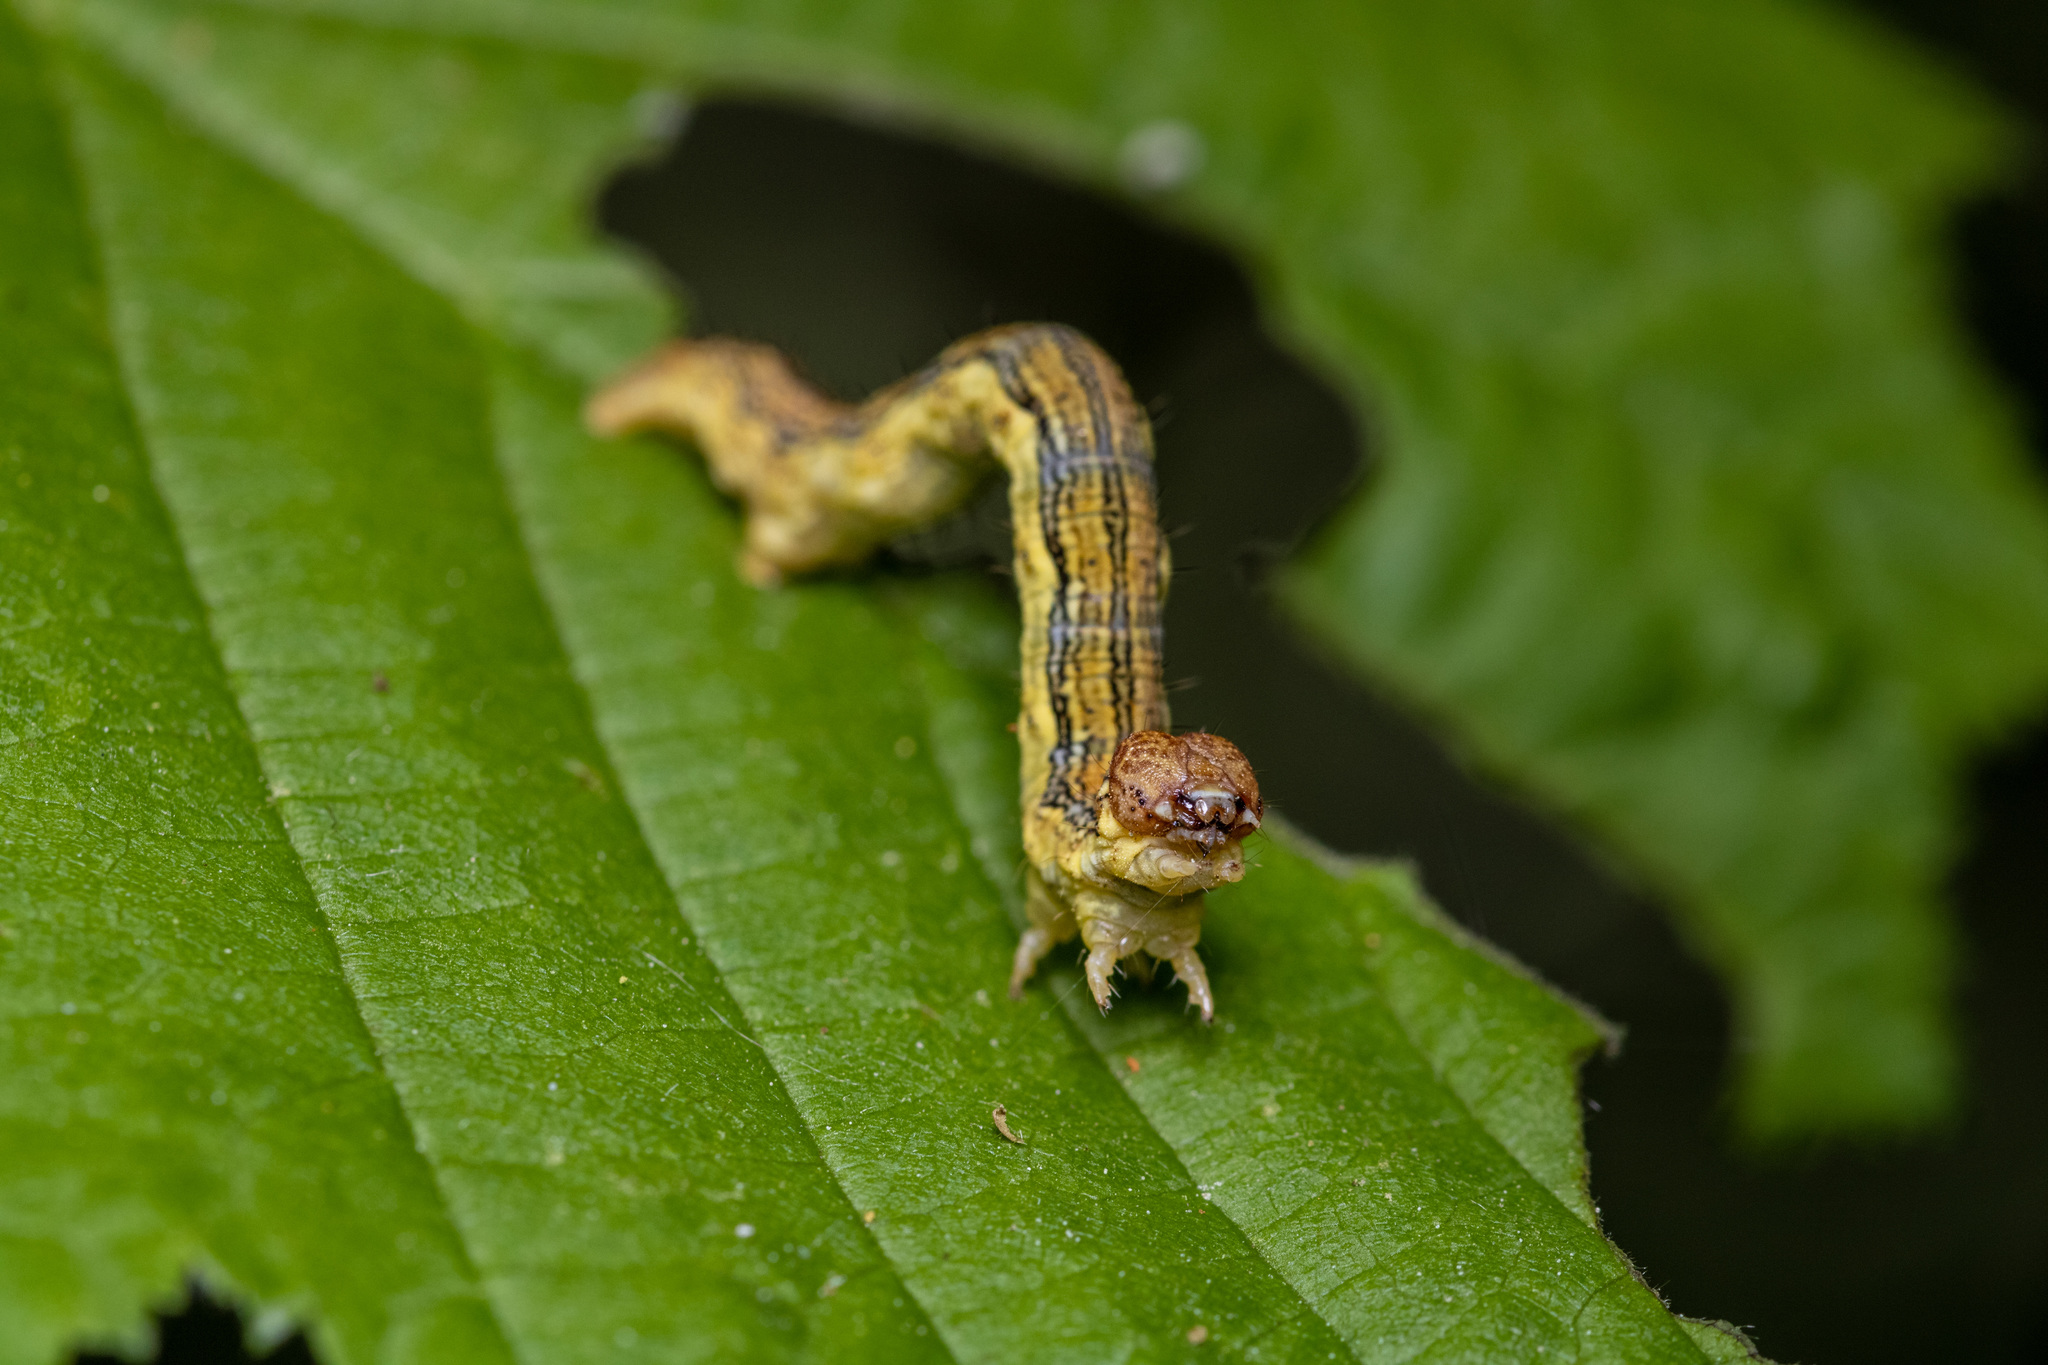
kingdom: Animalia
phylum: Arthropoda
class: Insecta
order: Lepidoptera
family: Geometridae
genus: Erannis
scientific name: Erannis defoliaria
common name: Mottled umber
